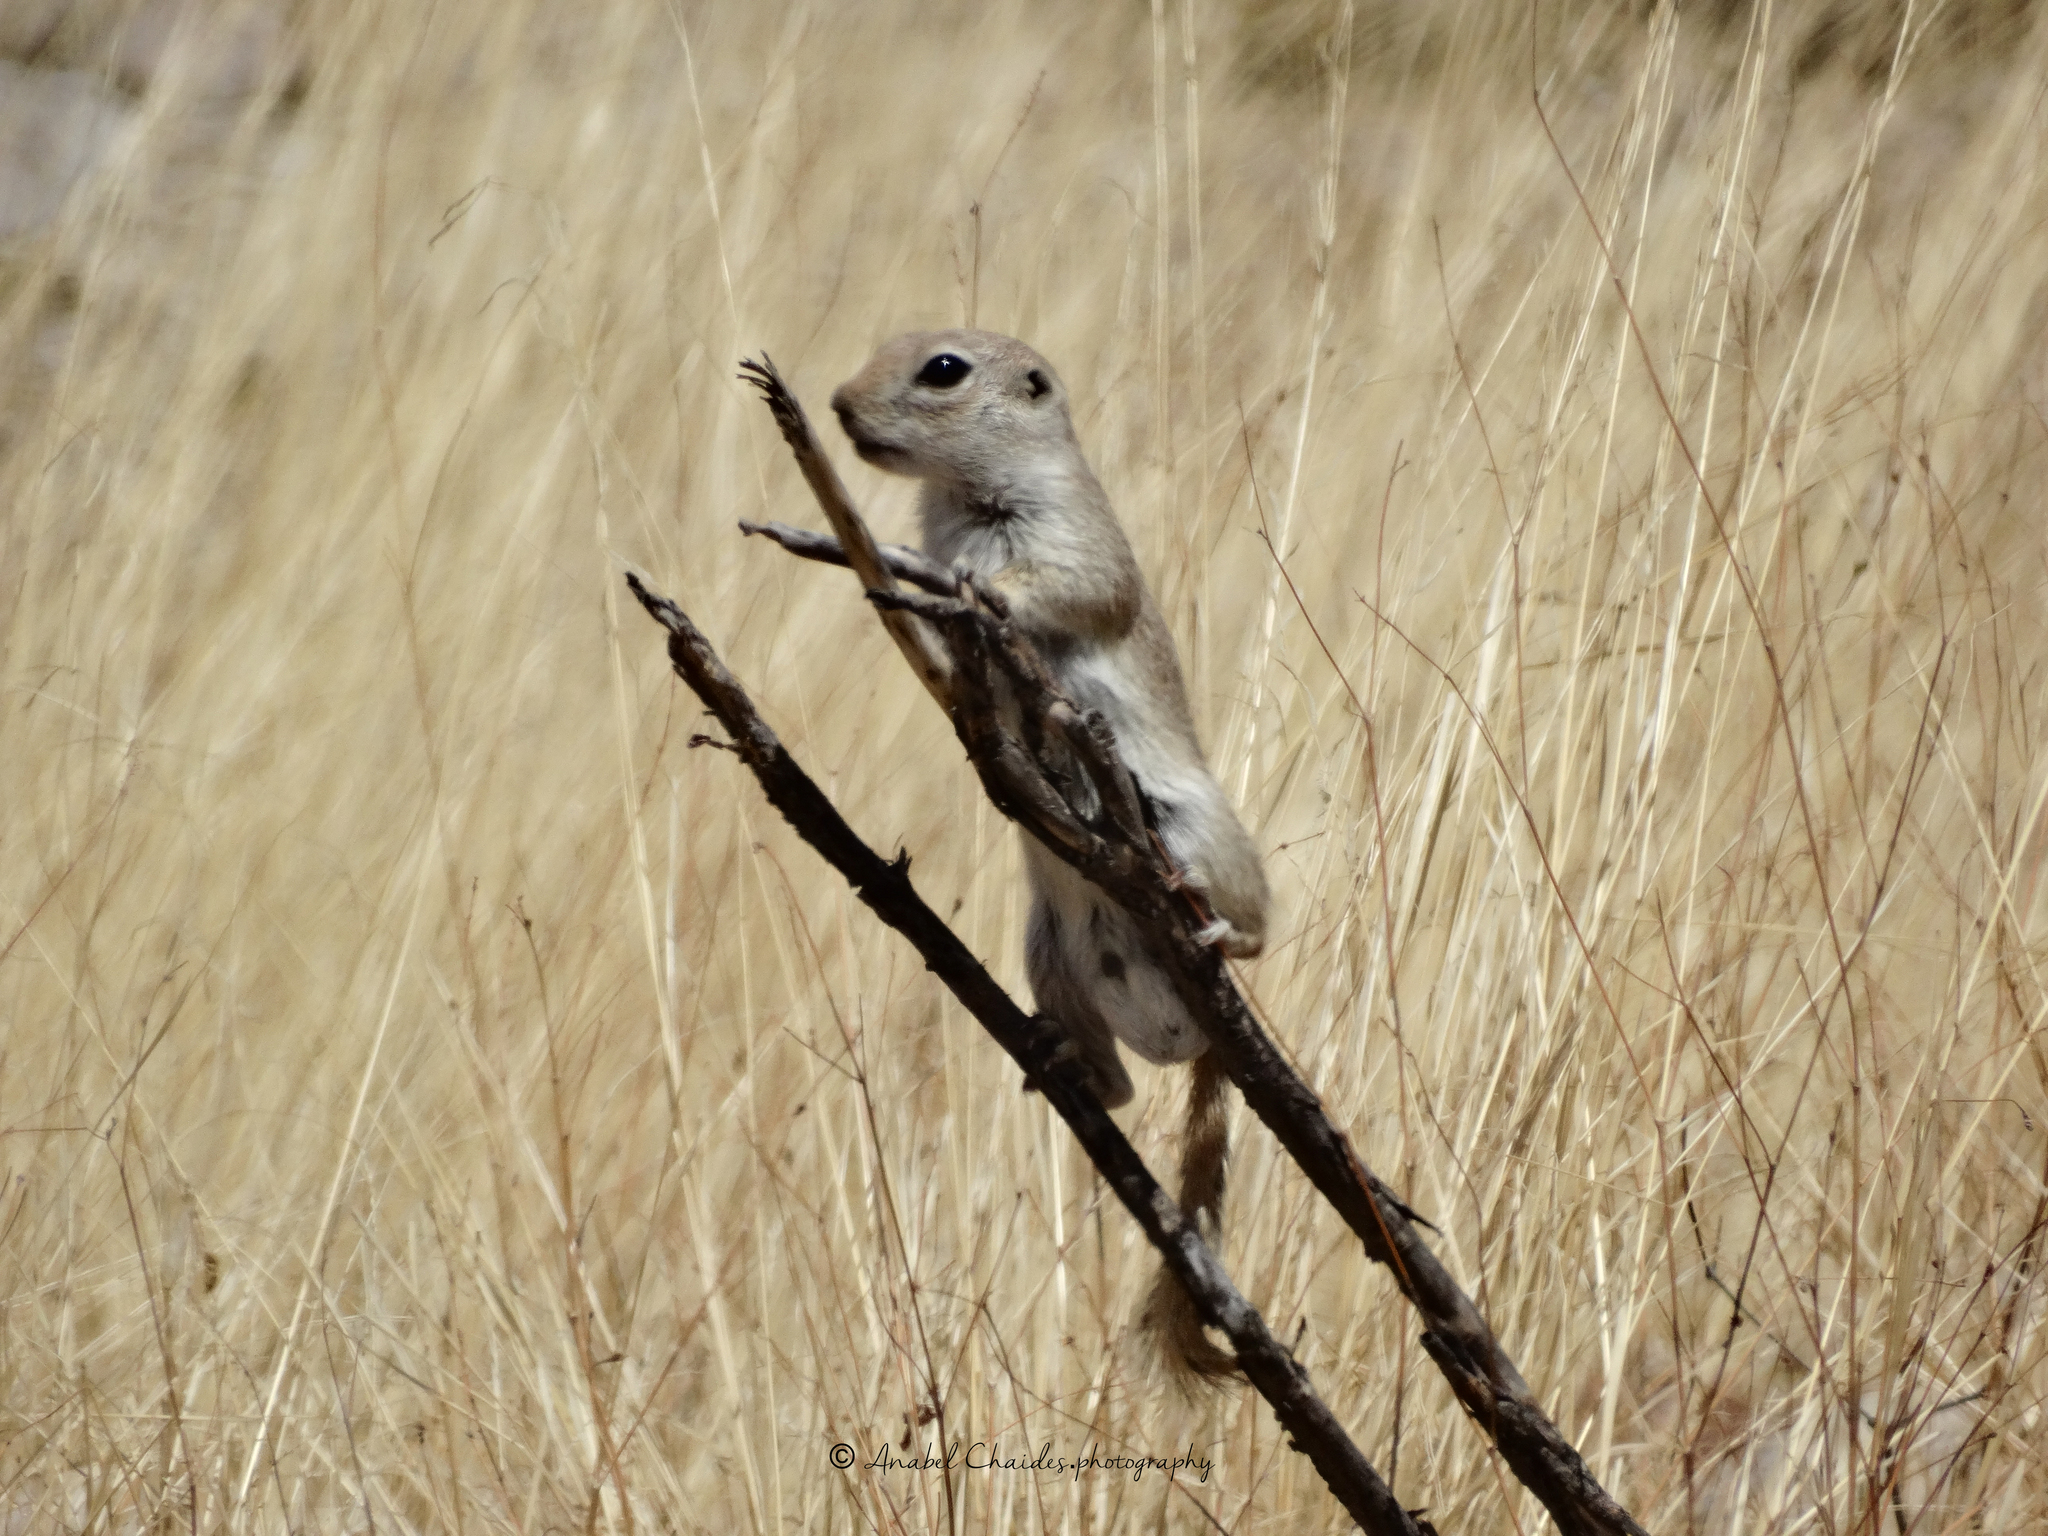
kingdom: Animalia
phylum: Chordata
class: Mammalia
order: Rodentia
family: Sciuridae
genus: Xerospermophilus
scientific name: Xerospermophilus tereticaudus
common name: Round-tailed ground squirrel
